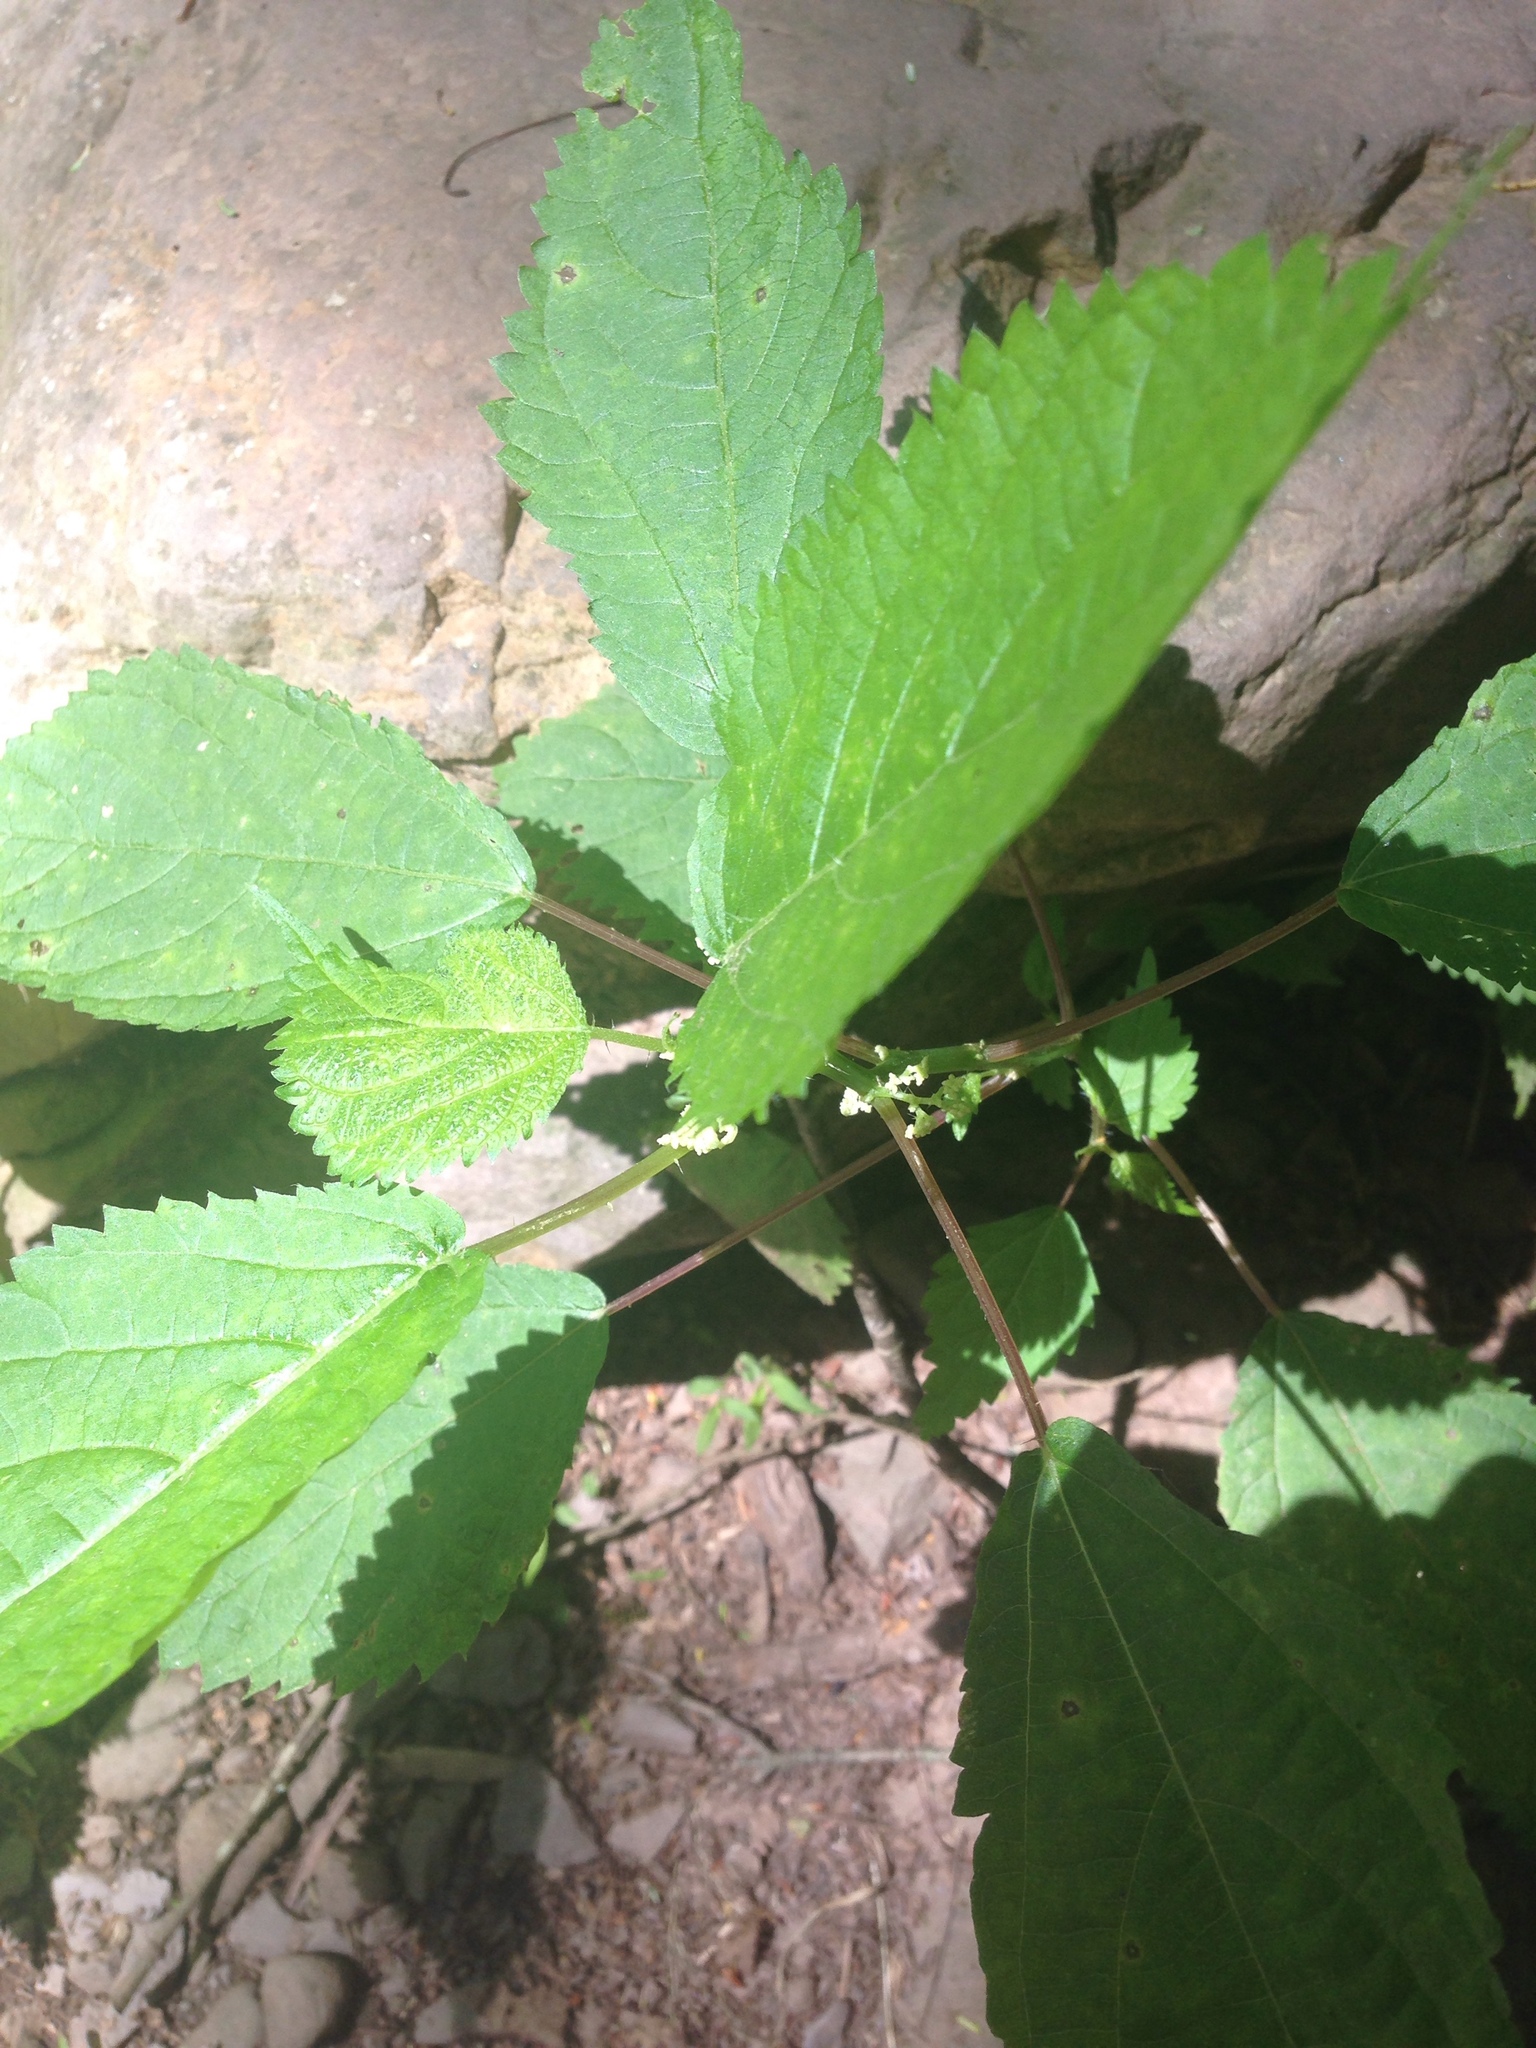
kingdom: Plantae
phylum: Tracheophyta
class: Magnoliopsida
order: Rosales
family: Urticaceae
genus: Urtica
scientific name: Urtica dioica
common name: Common nettle
